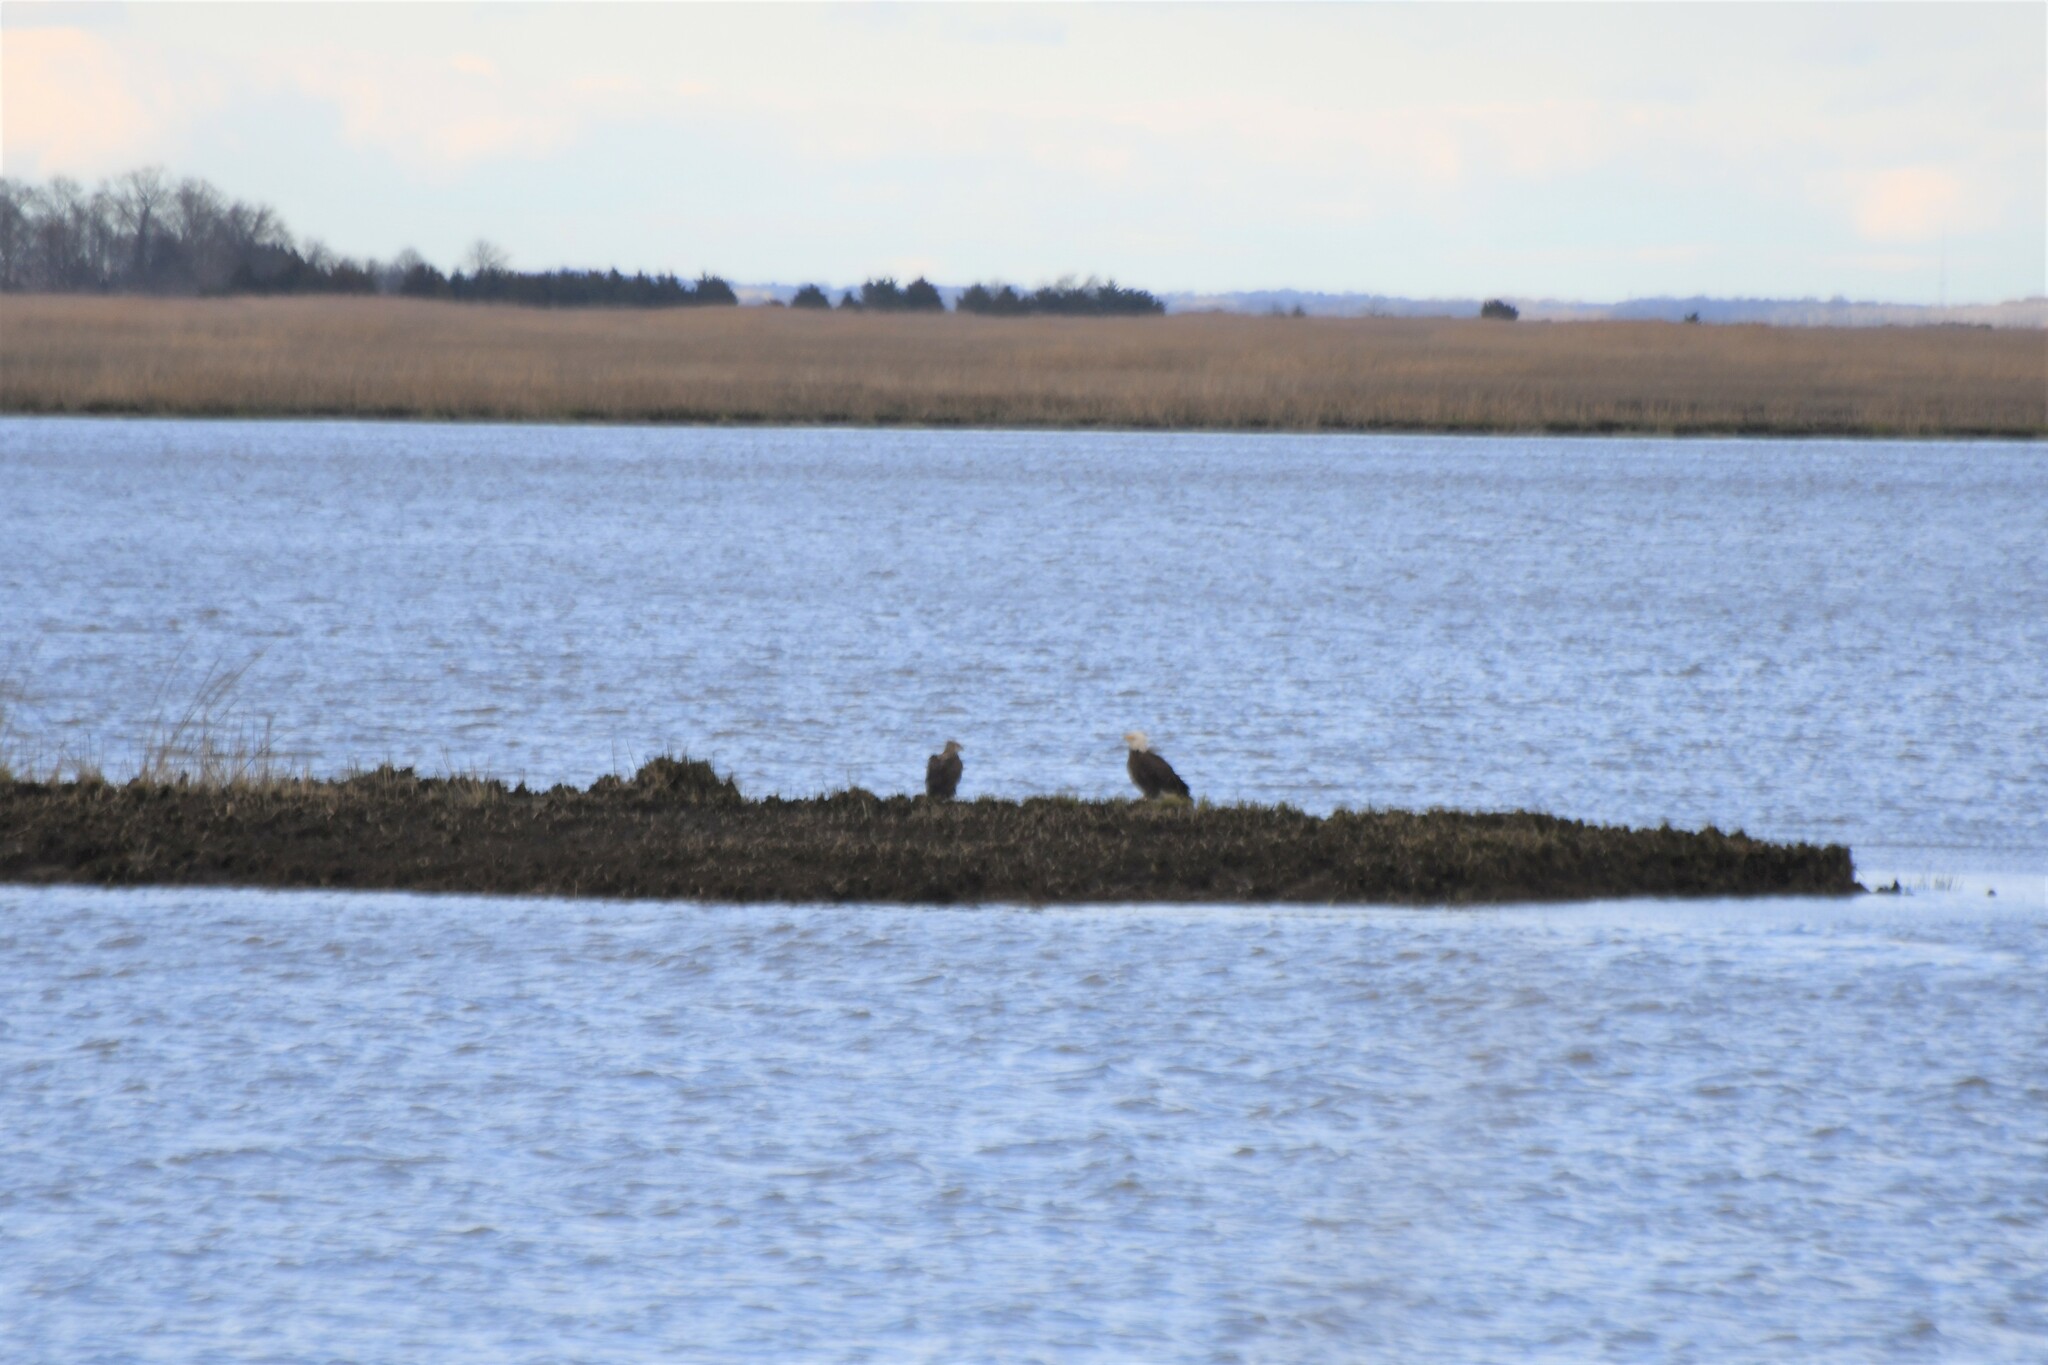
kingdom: Animalia
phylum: Chordata
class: Aves
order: Accipitriformes
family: Accipitridae
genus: Haliaeetus
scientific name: Haliaeetus leucocephalus
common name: Bald eagle
